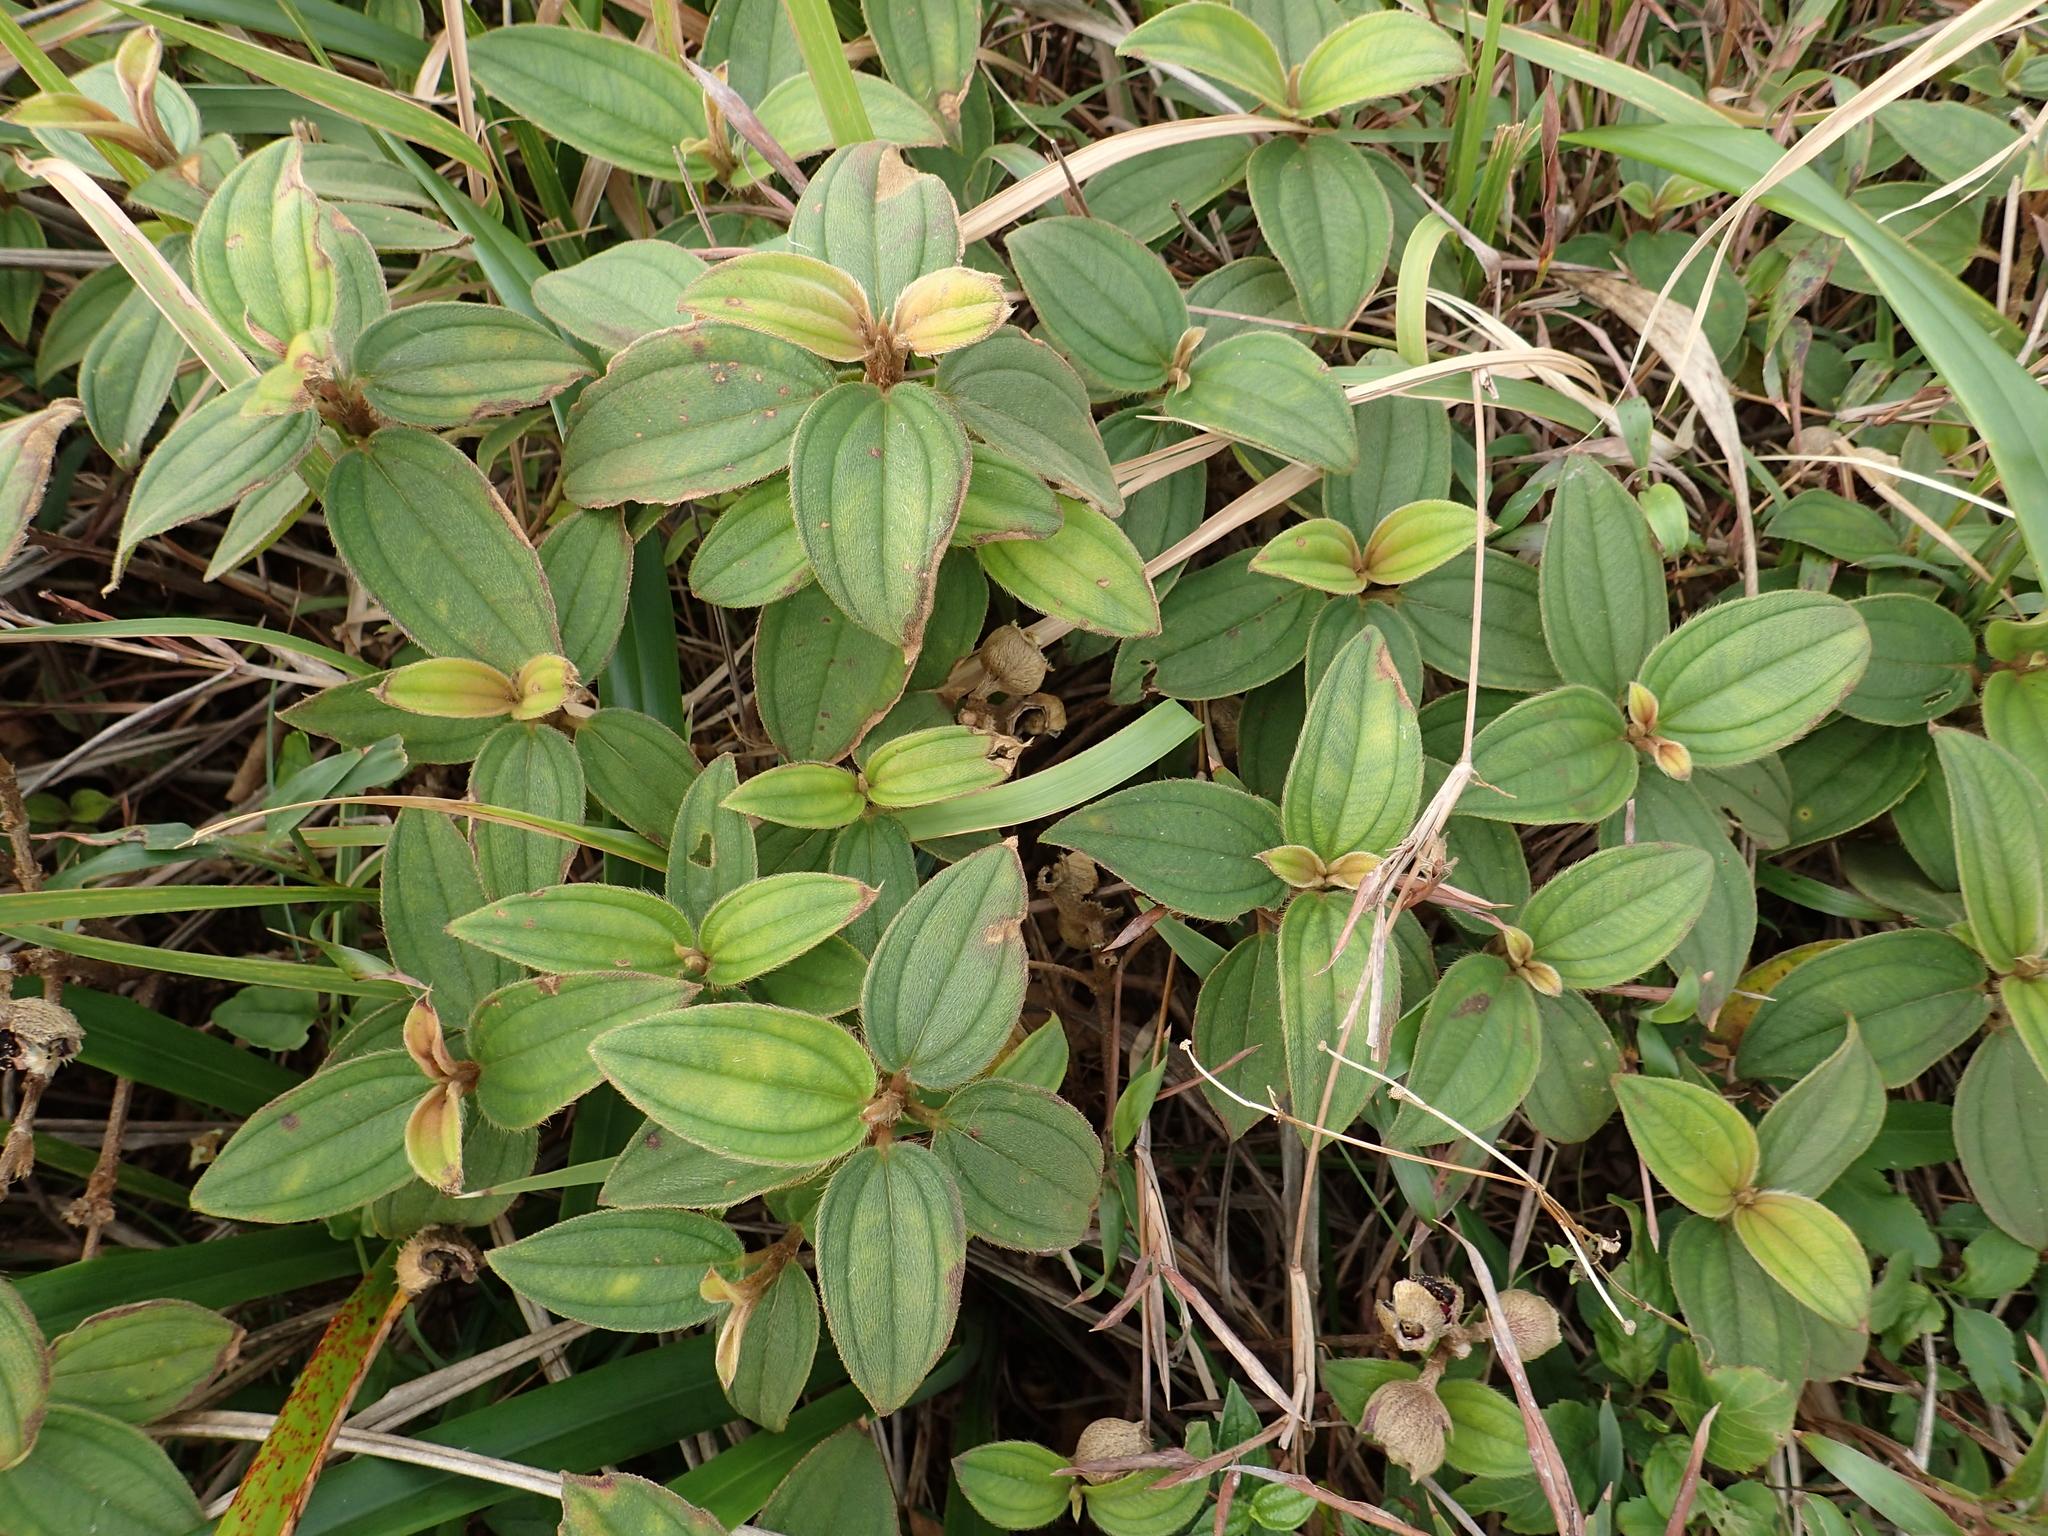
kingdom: Plantae
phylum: Tracheophyta
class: Magnoliopsida
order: Myrtales
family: Melastomataceae
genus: Melastoma
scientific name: Melastoma malabathricum
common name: Indian-rhododendron
